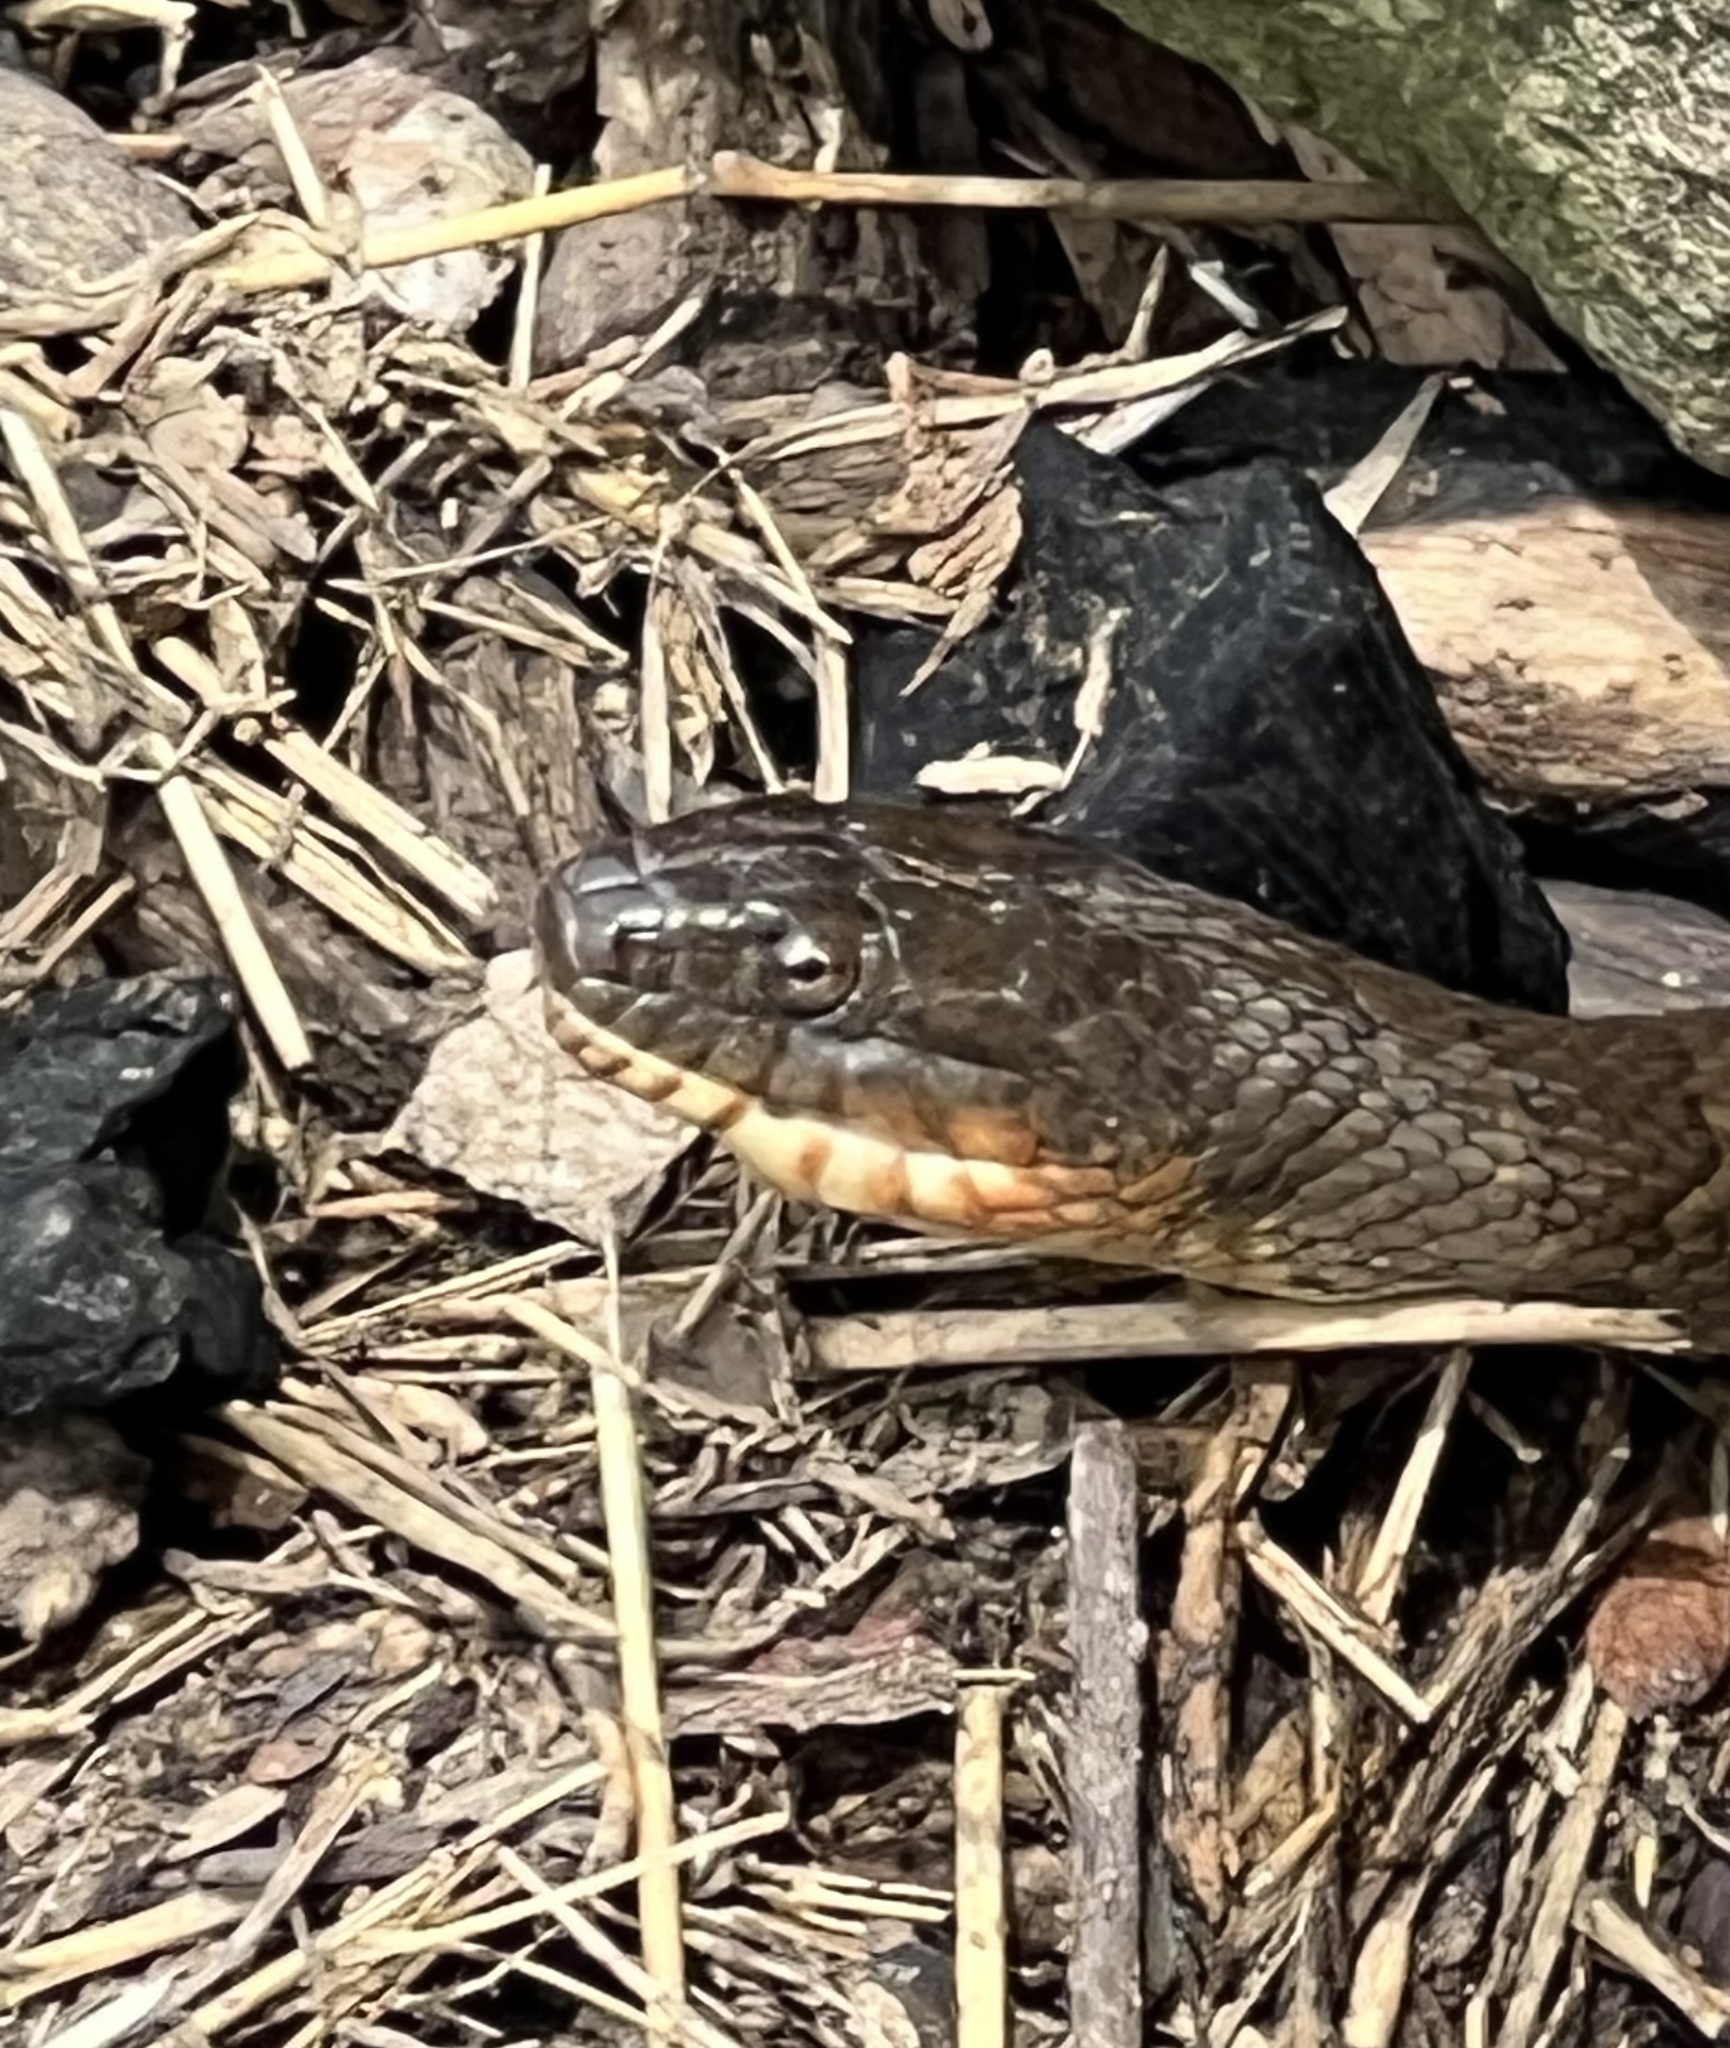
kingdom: Animalia
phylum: Chordata
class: Squamata
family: Colubridae
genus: Nerodia
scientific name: Nerodia sipedon
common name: Northern water snake
